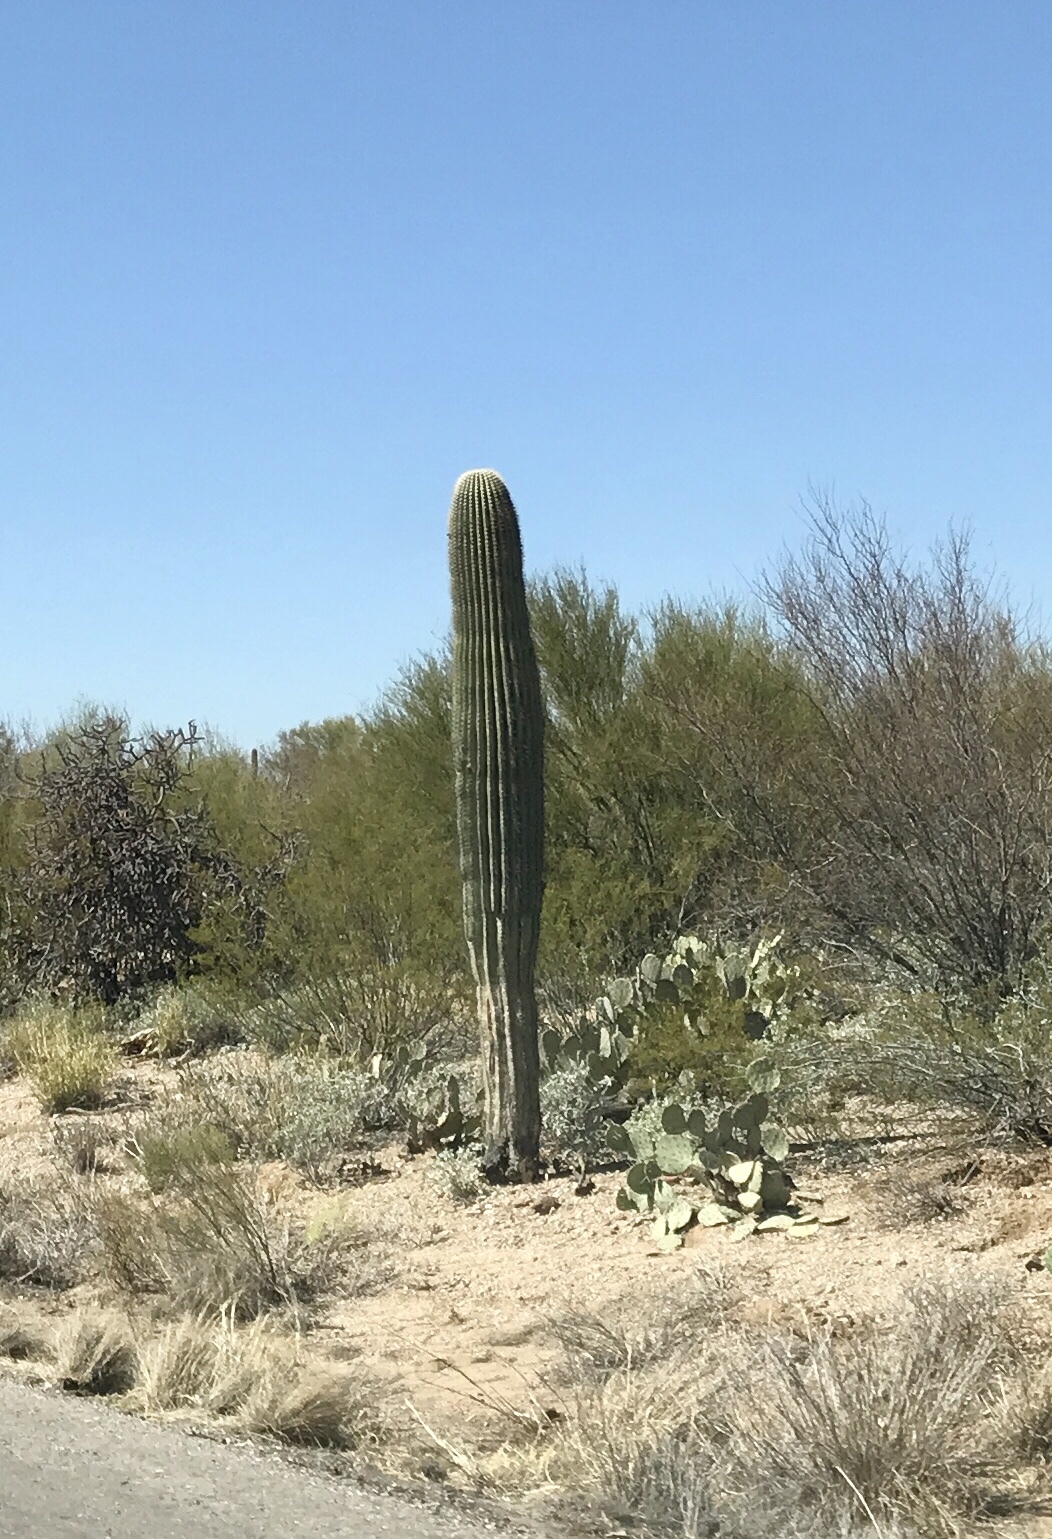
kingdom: Plantae
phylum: Tracheophyta
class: Magnoliopsida
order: Caryophyllales
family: Cactaceae
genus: Carnegiea
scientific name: Carnegiea gigantea
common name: Saguaro
